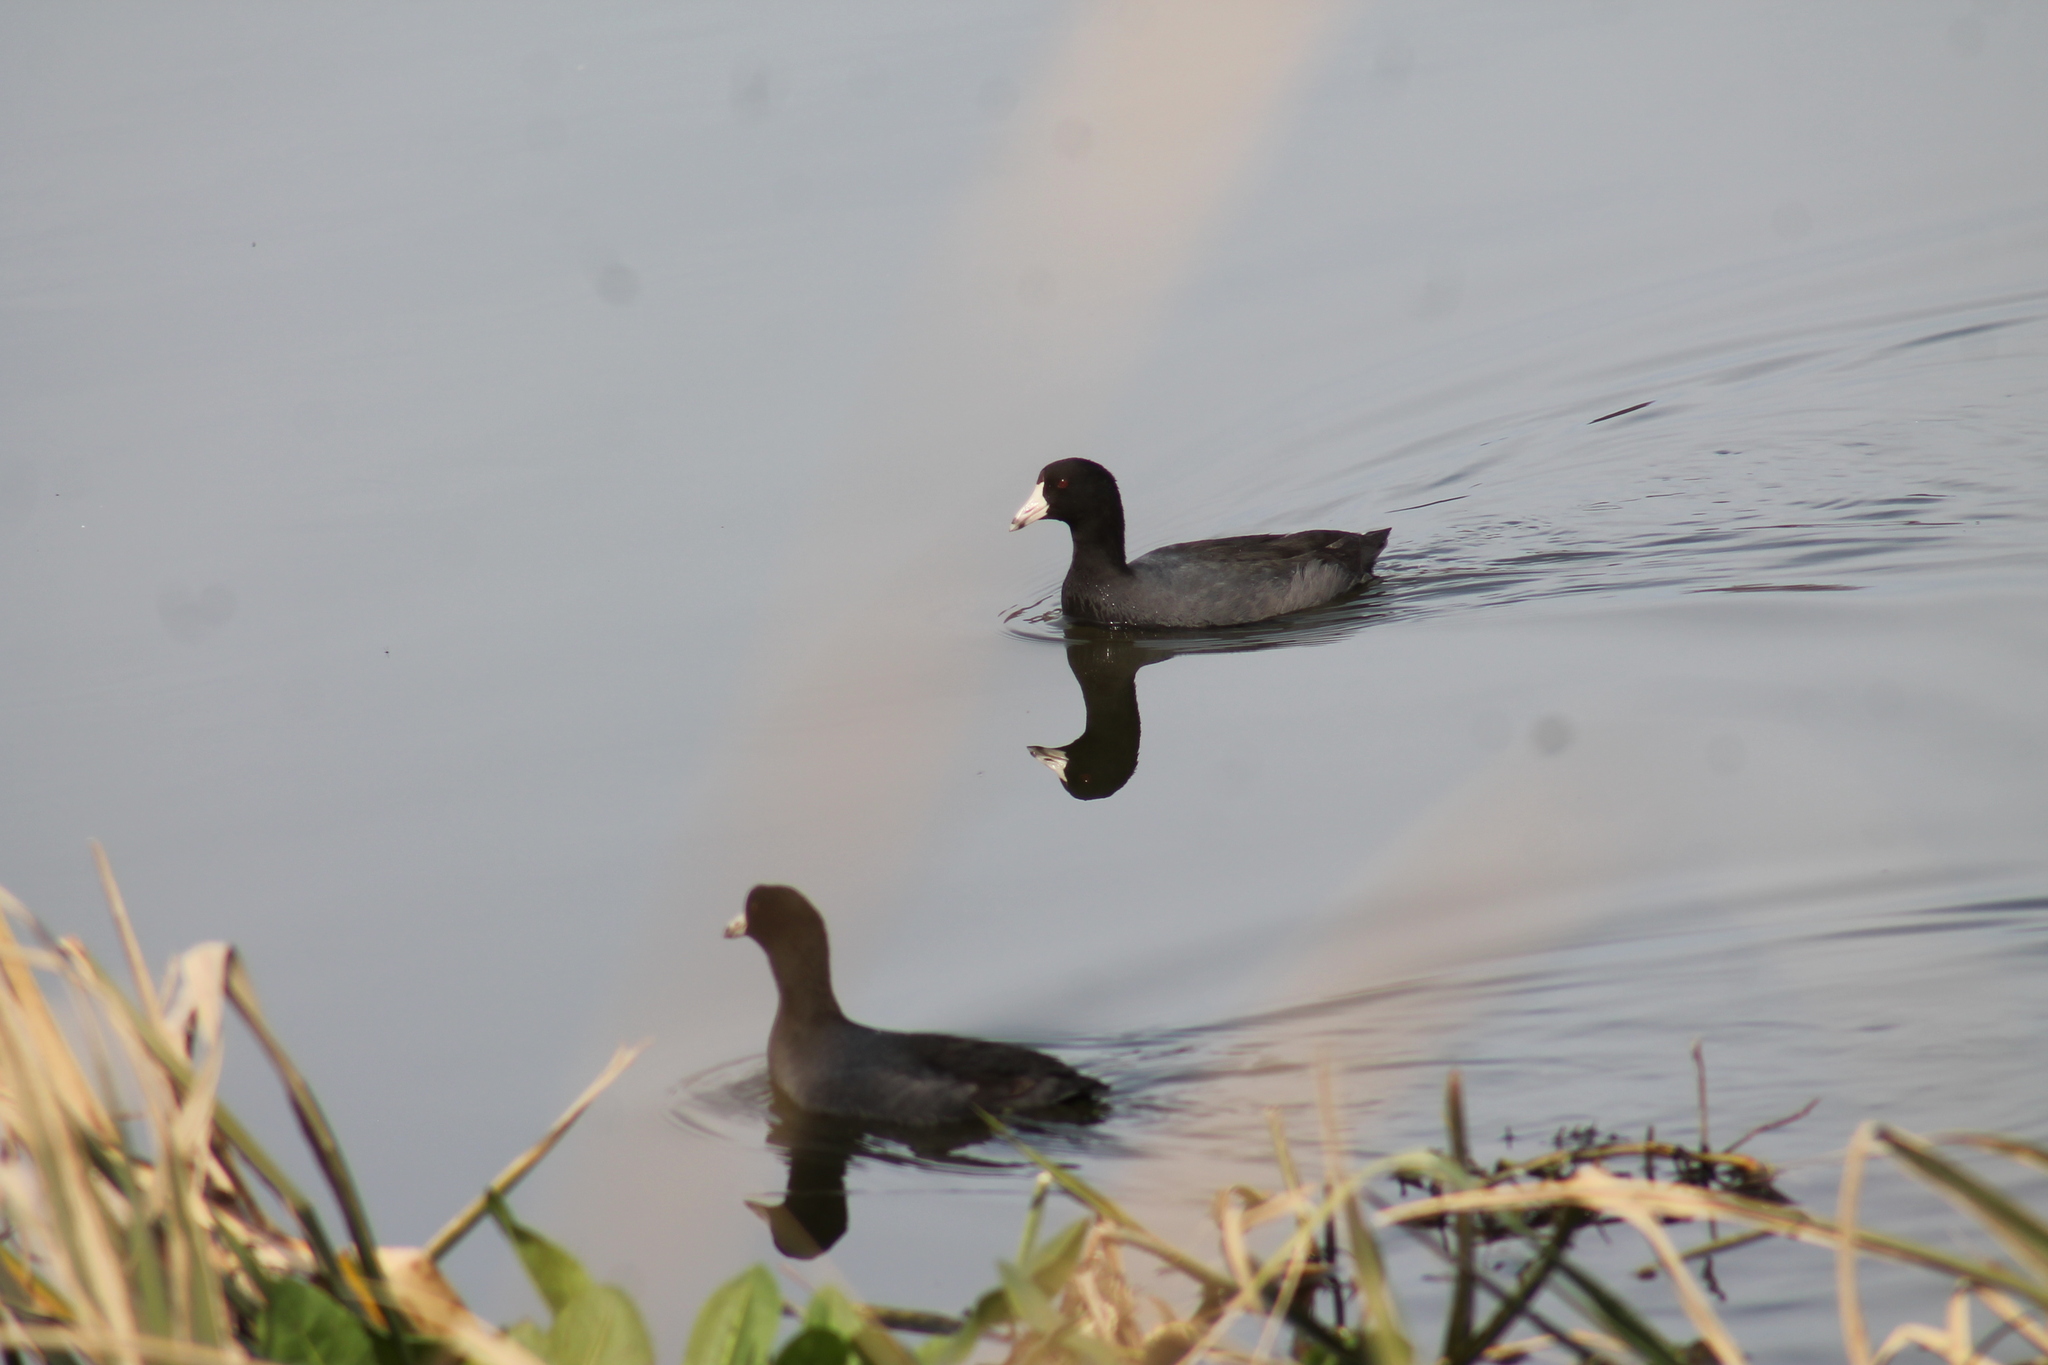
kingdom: Animalia
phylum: Chordata
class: Aves
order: Gruiformes
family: Rallidae
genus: Fulica
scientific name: Fulica americana
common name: American coot
